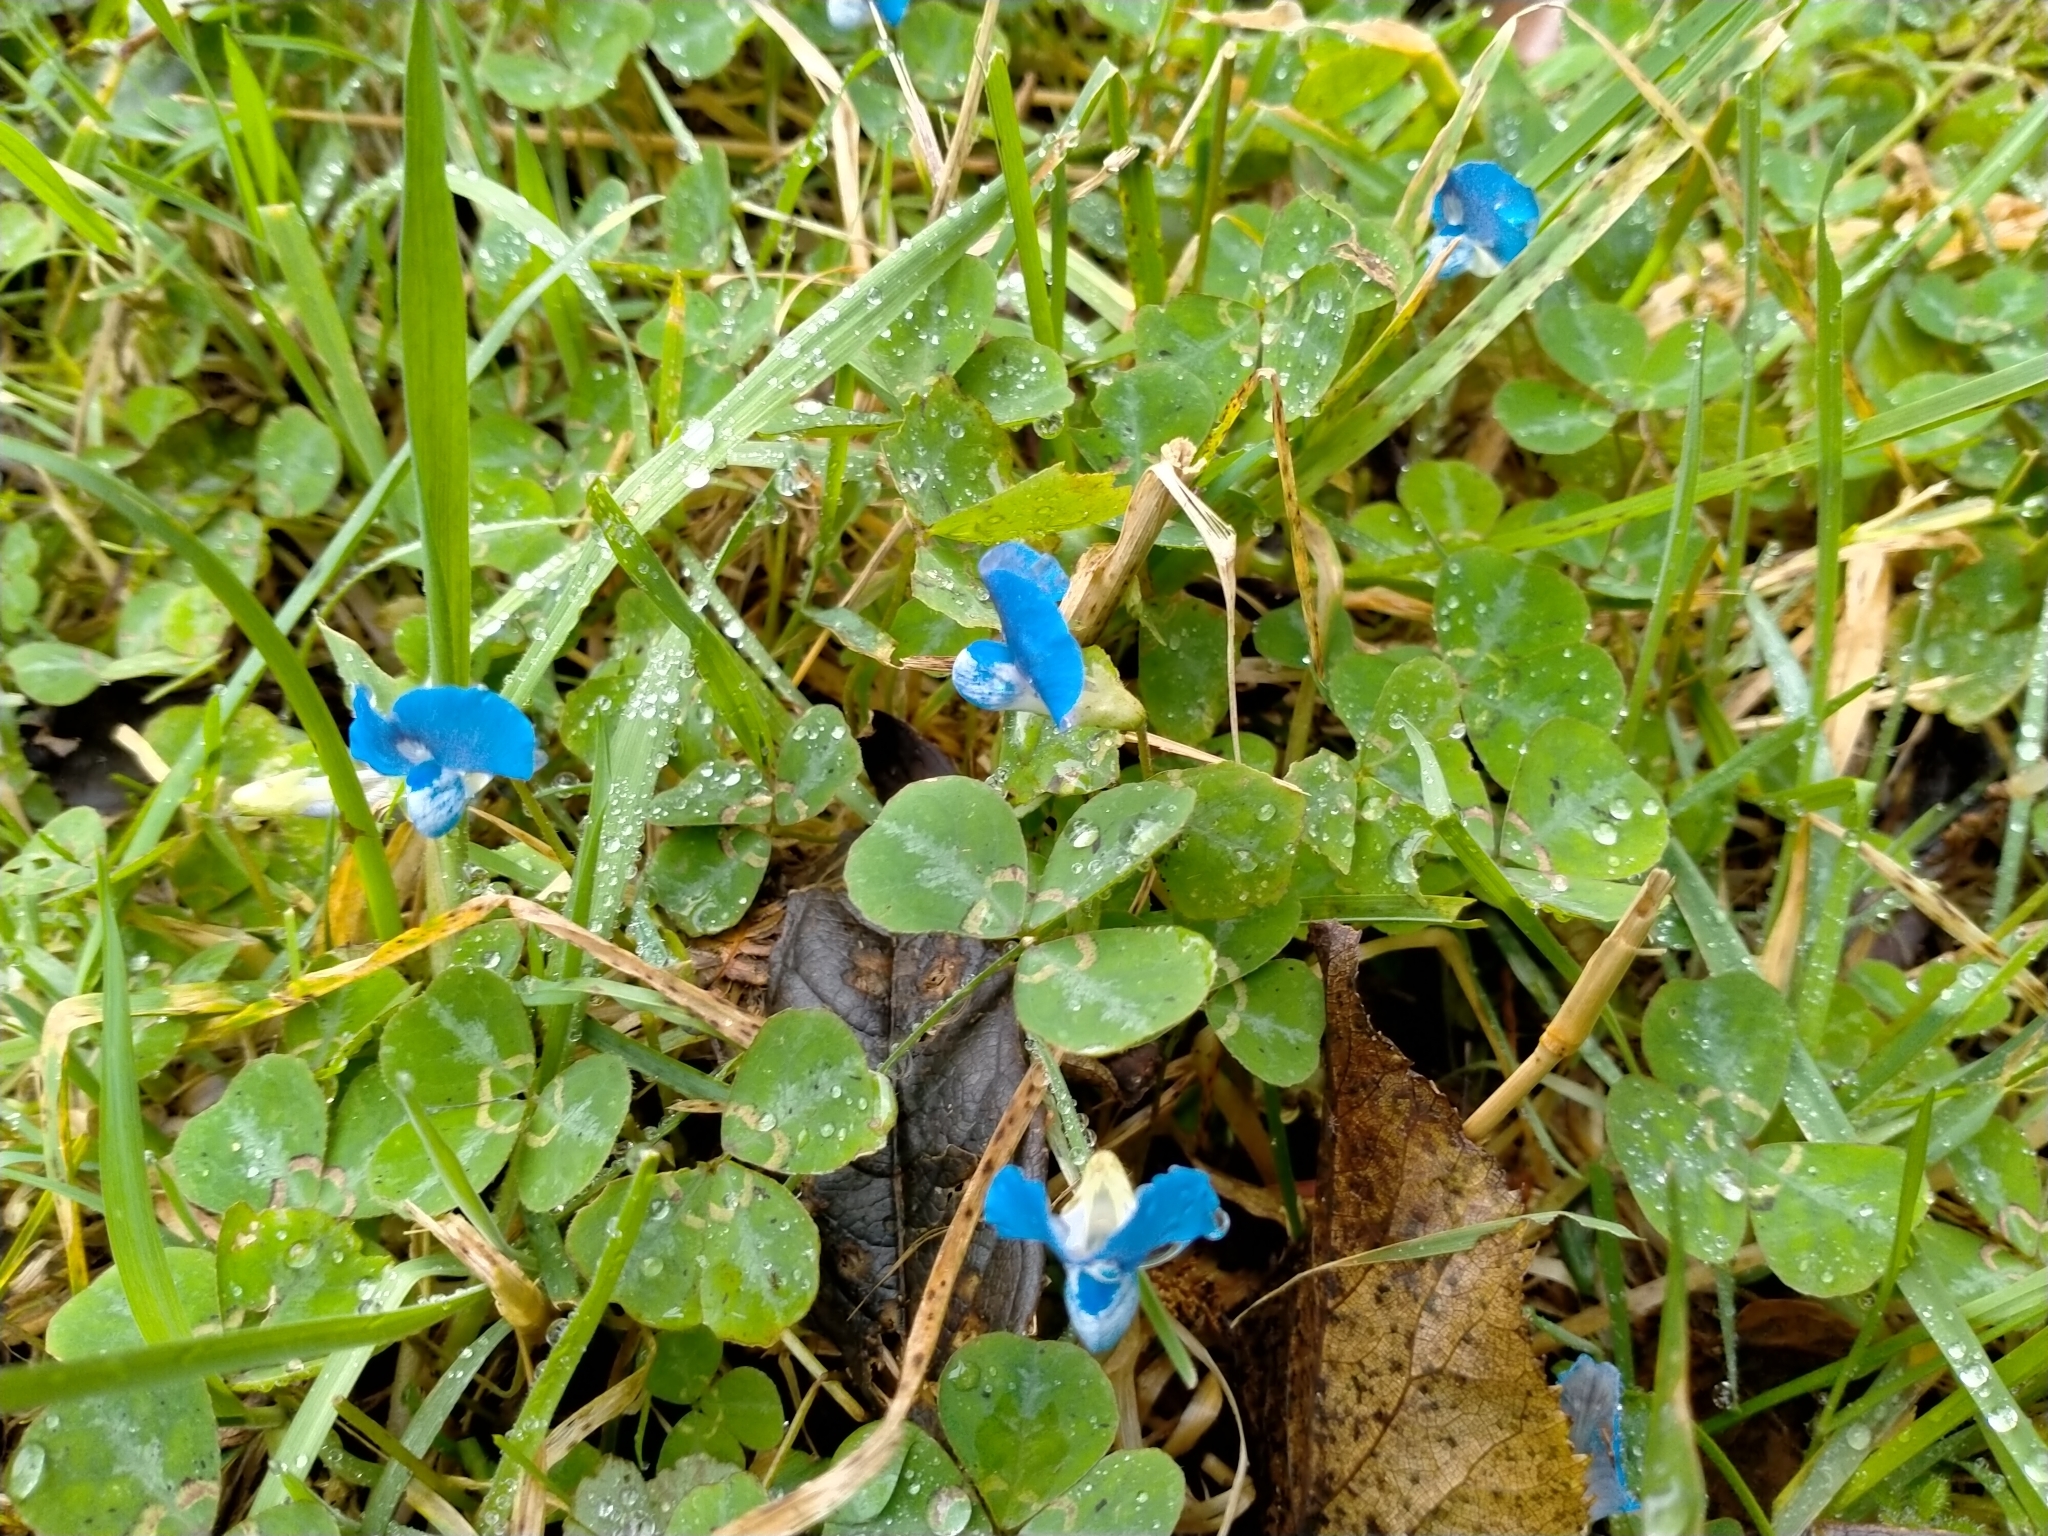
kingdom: Plantae
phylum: Tracheophyta
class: Magnoliopsida
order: Fabales
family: Fabaceae
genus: Parochetus
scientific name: Parochetus communis
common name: Blue oxalis
